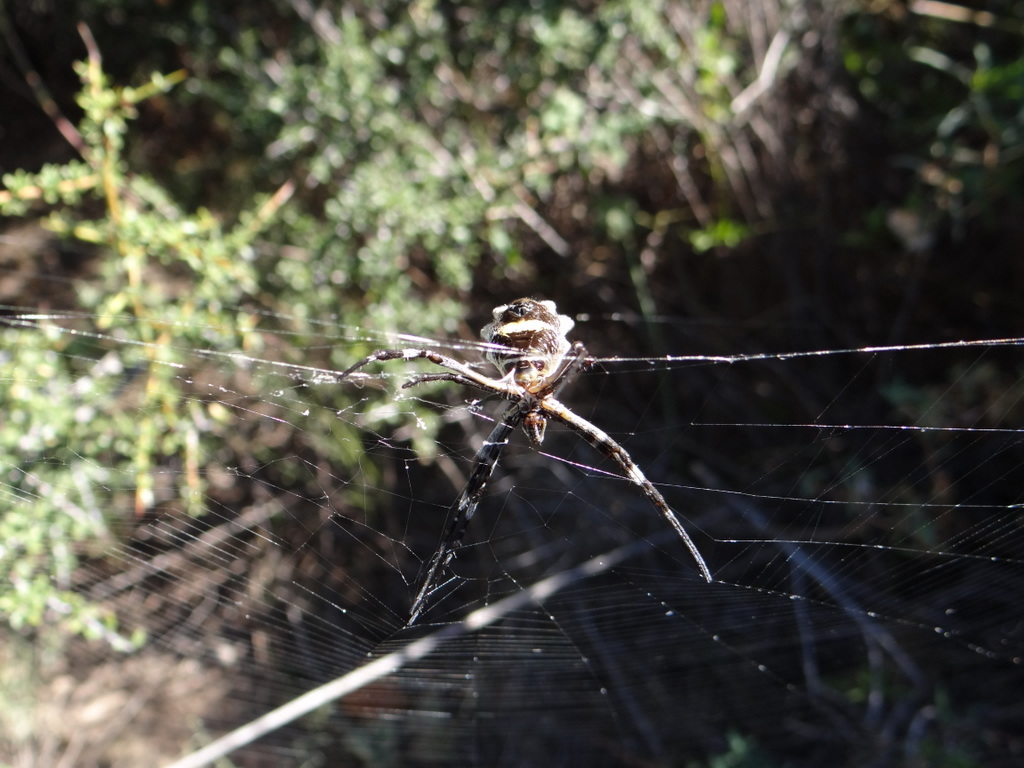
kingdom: Animalia
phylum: Arthropoda
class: Arachnida
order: Araneae
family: Araneidae
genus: Argiope
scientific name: Argiope argentata
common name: Orb weavers
